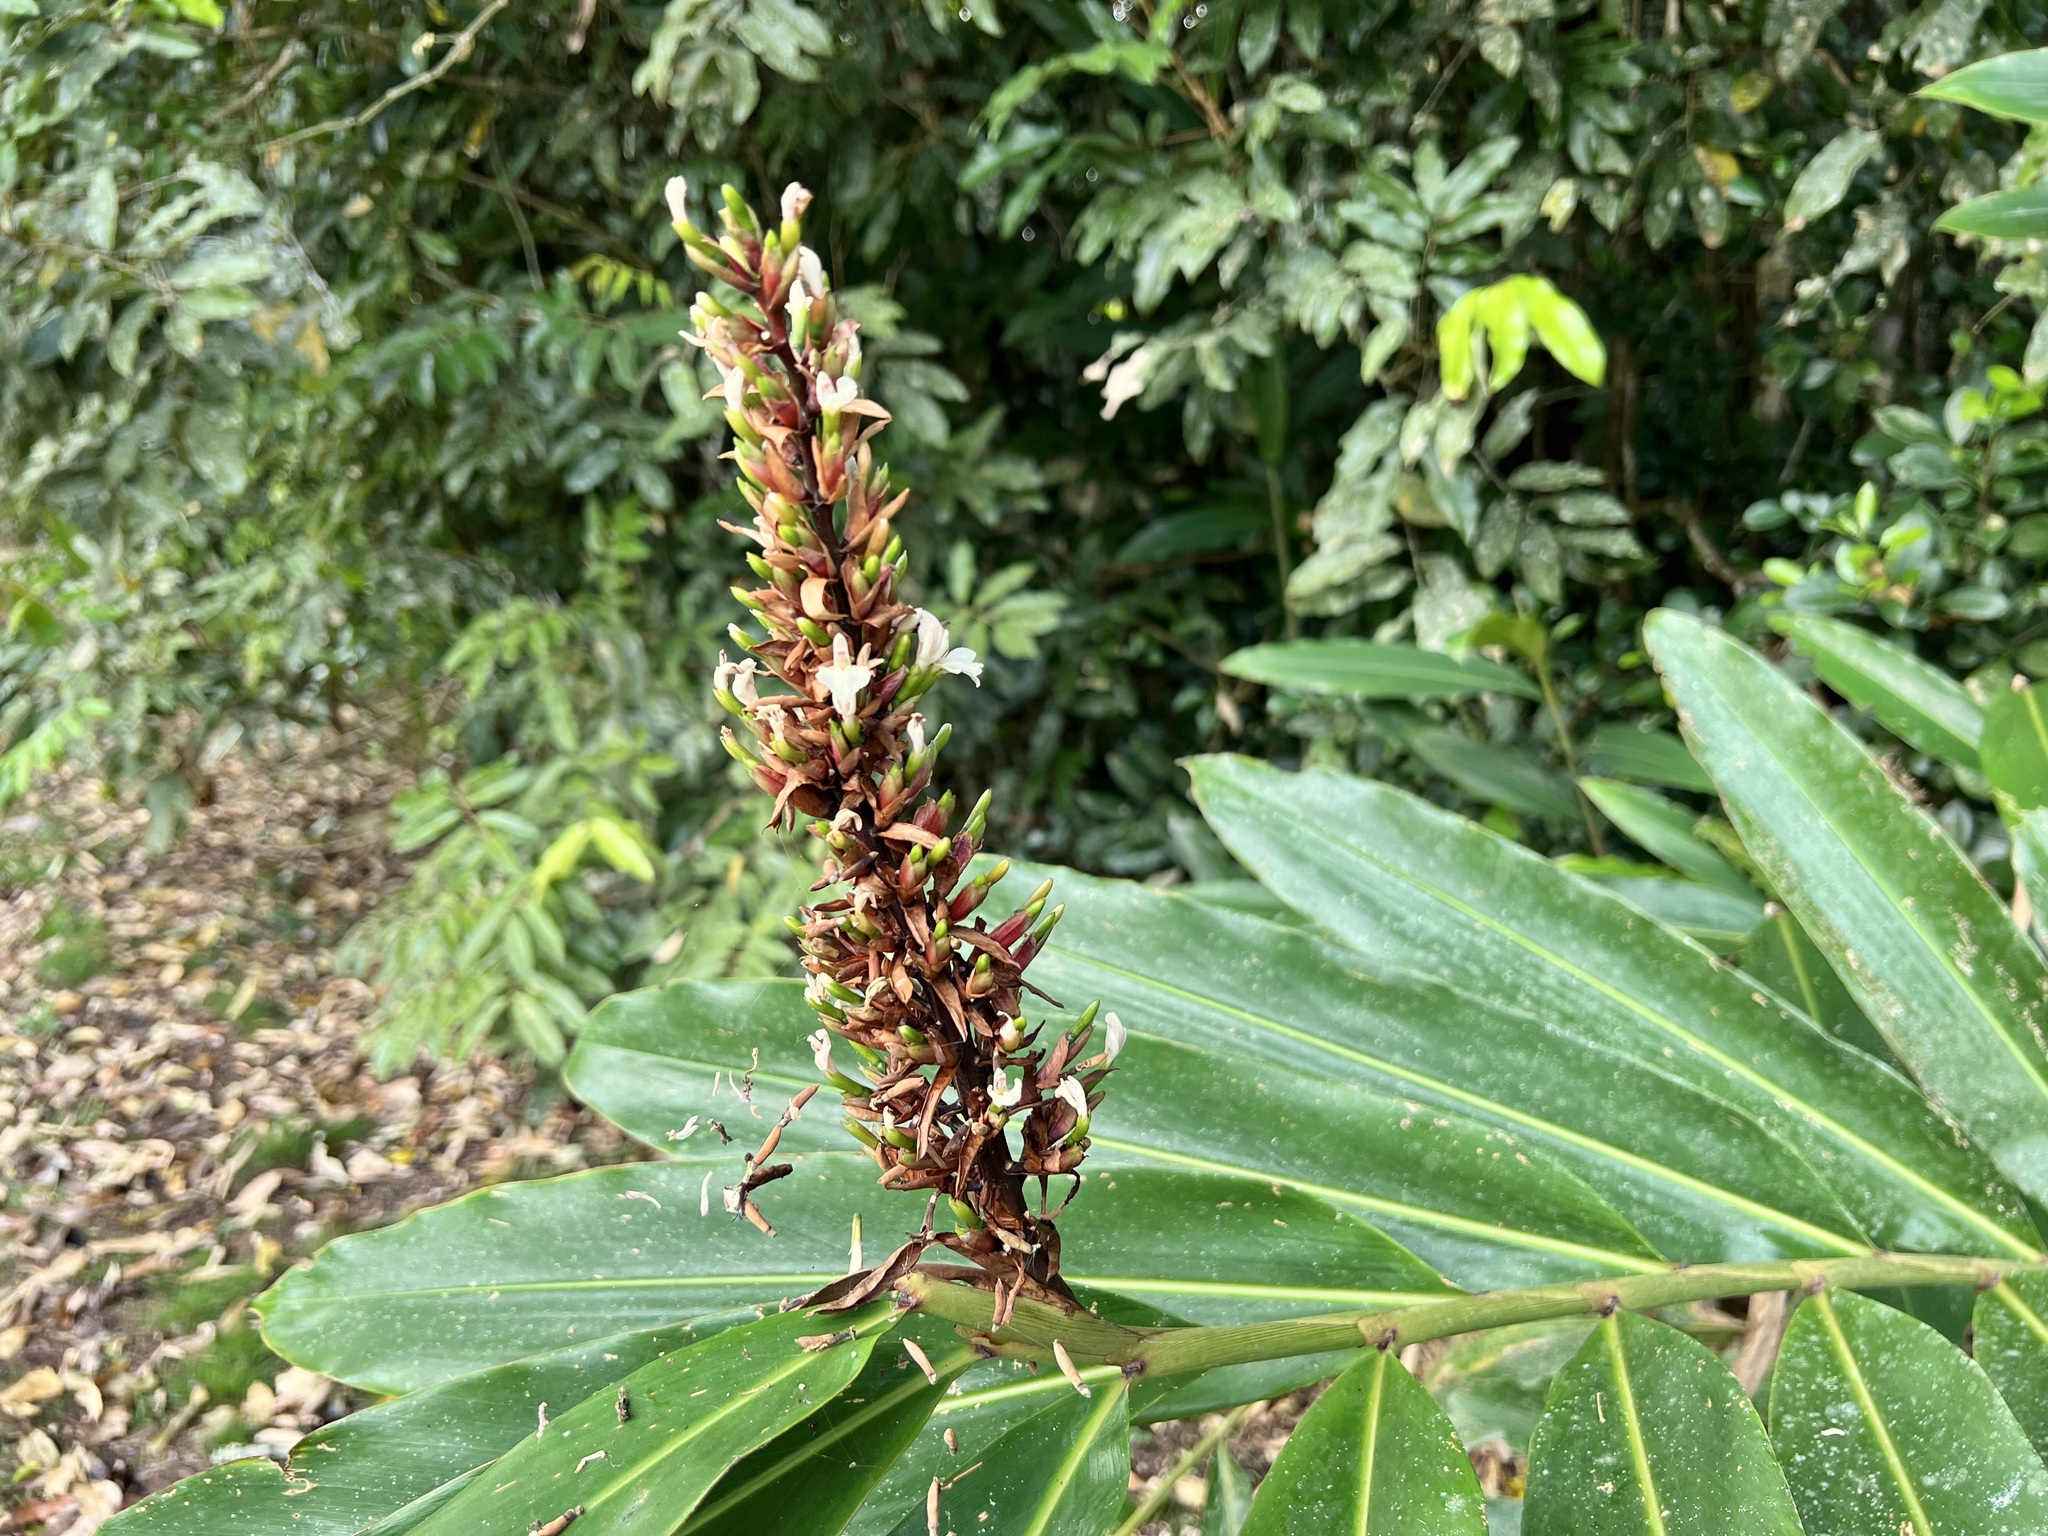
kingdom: Plantae
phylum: Tracheophyta
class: Liliopsida
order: Zingiberales
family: Zingiberaceae
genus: Alpinia
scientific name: Alpinia caerulea
